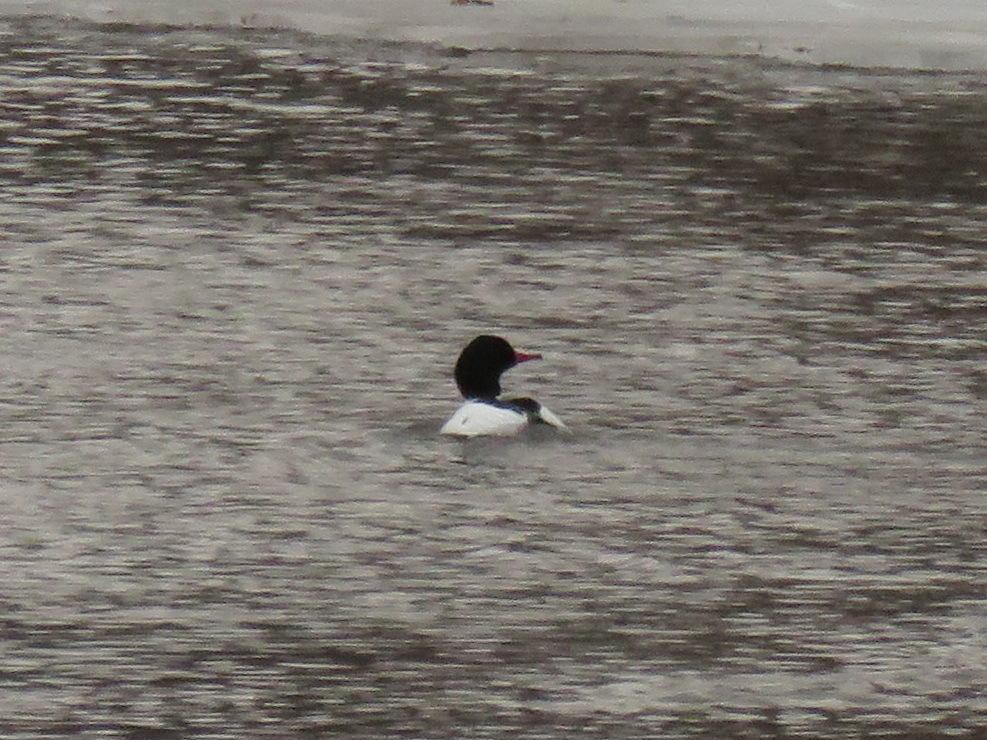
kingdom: Animalia
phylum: Chordata
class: Aves
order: Anseriformes
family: Anatidae
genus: Mergus
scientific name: Mergus merganser
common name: Common merganser
